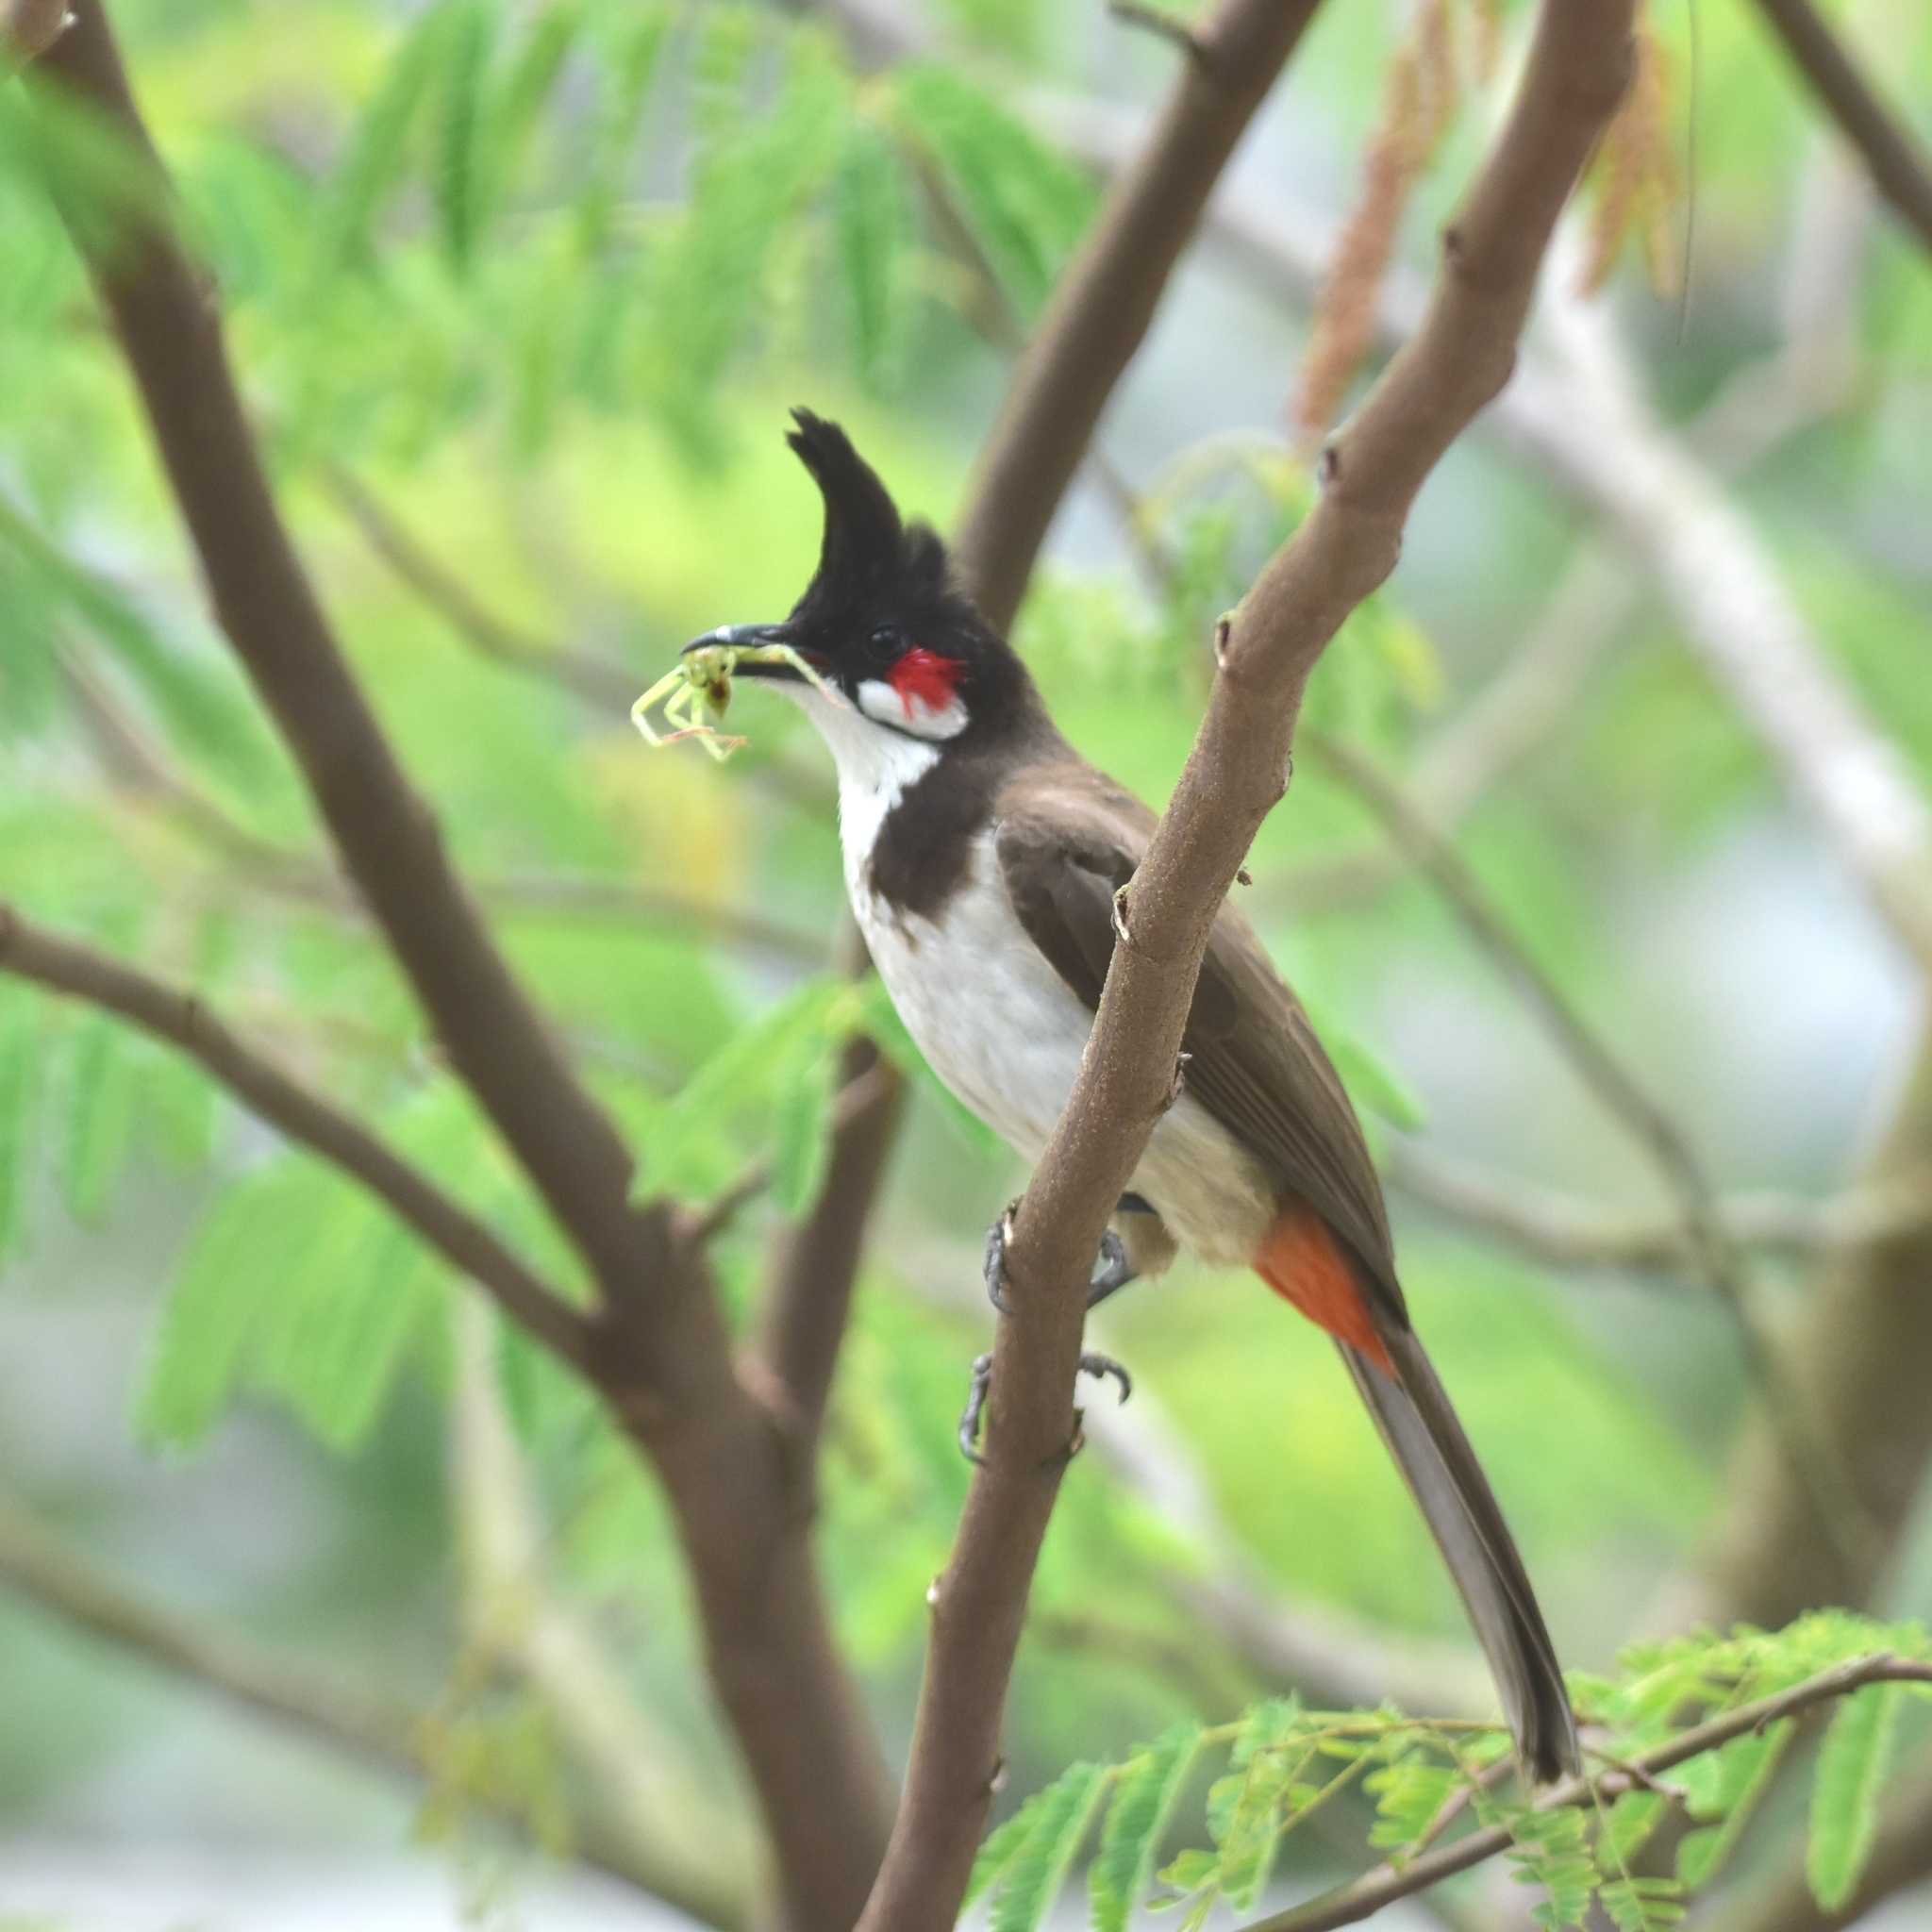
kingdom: Animalia
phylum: Chordata
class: Aves
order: Passeriformes
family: Pycnonotidae
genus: Pycnonotus
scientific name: Pycnonotus jocosus
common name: Red-whiskered bulbul
